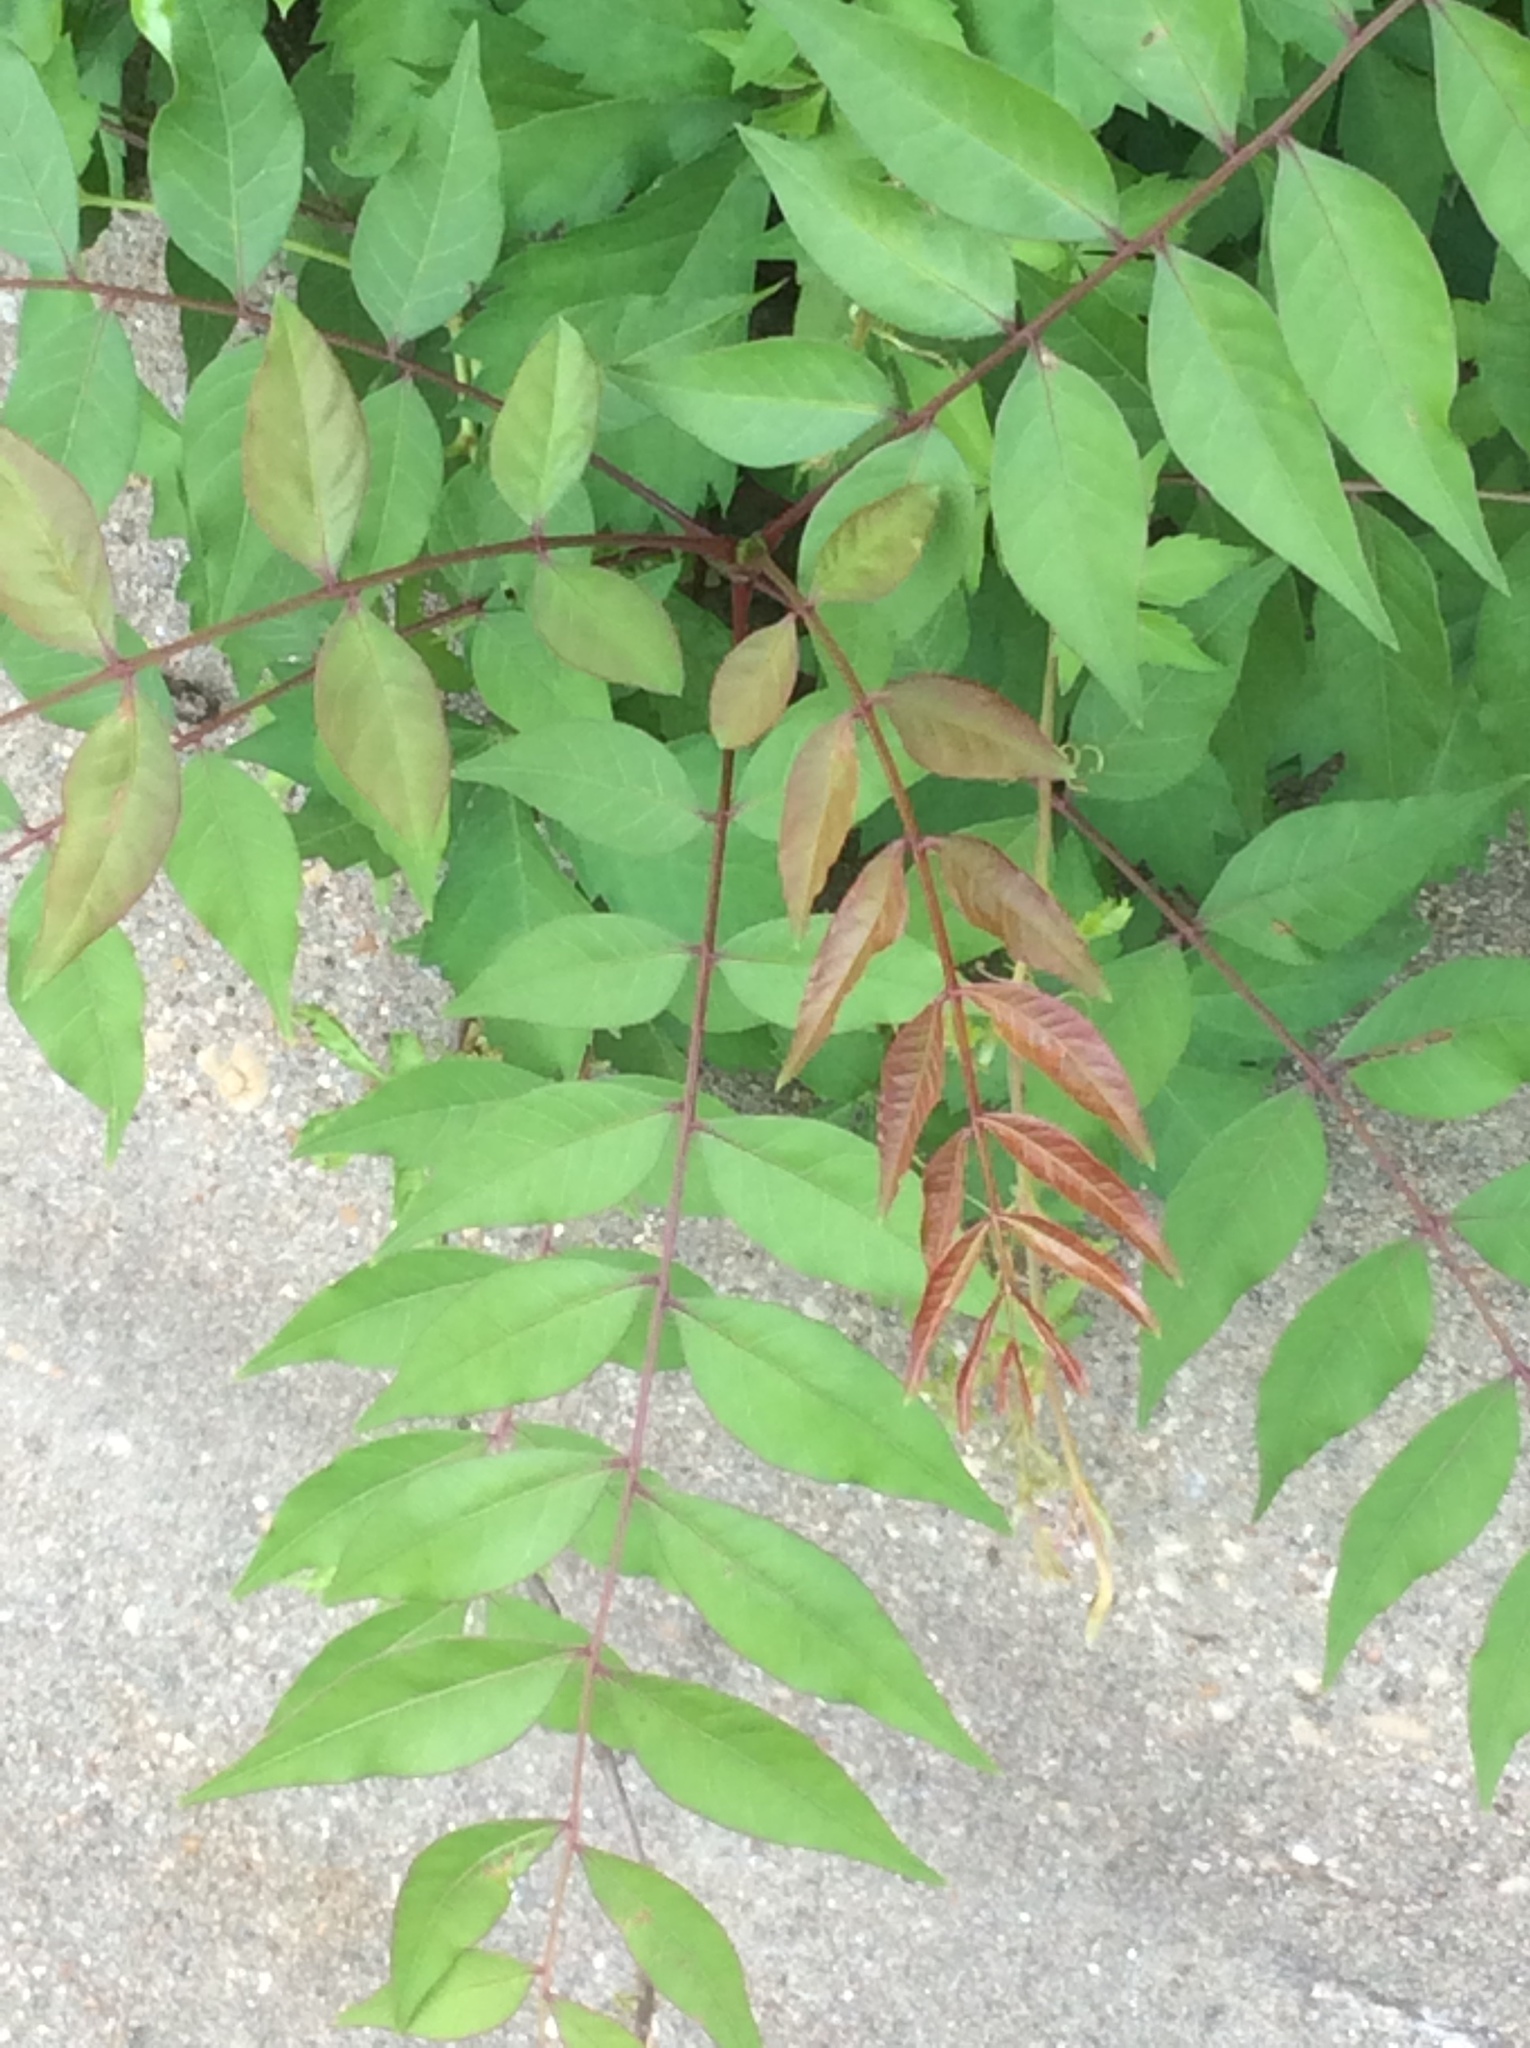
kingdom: Plantae
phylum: Tracheophyta
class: Magnoliopsida
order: Sapindales
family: Anacardiaceae
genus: Pistacia
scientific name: Pistacia chinensis
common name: Chinese pistache
